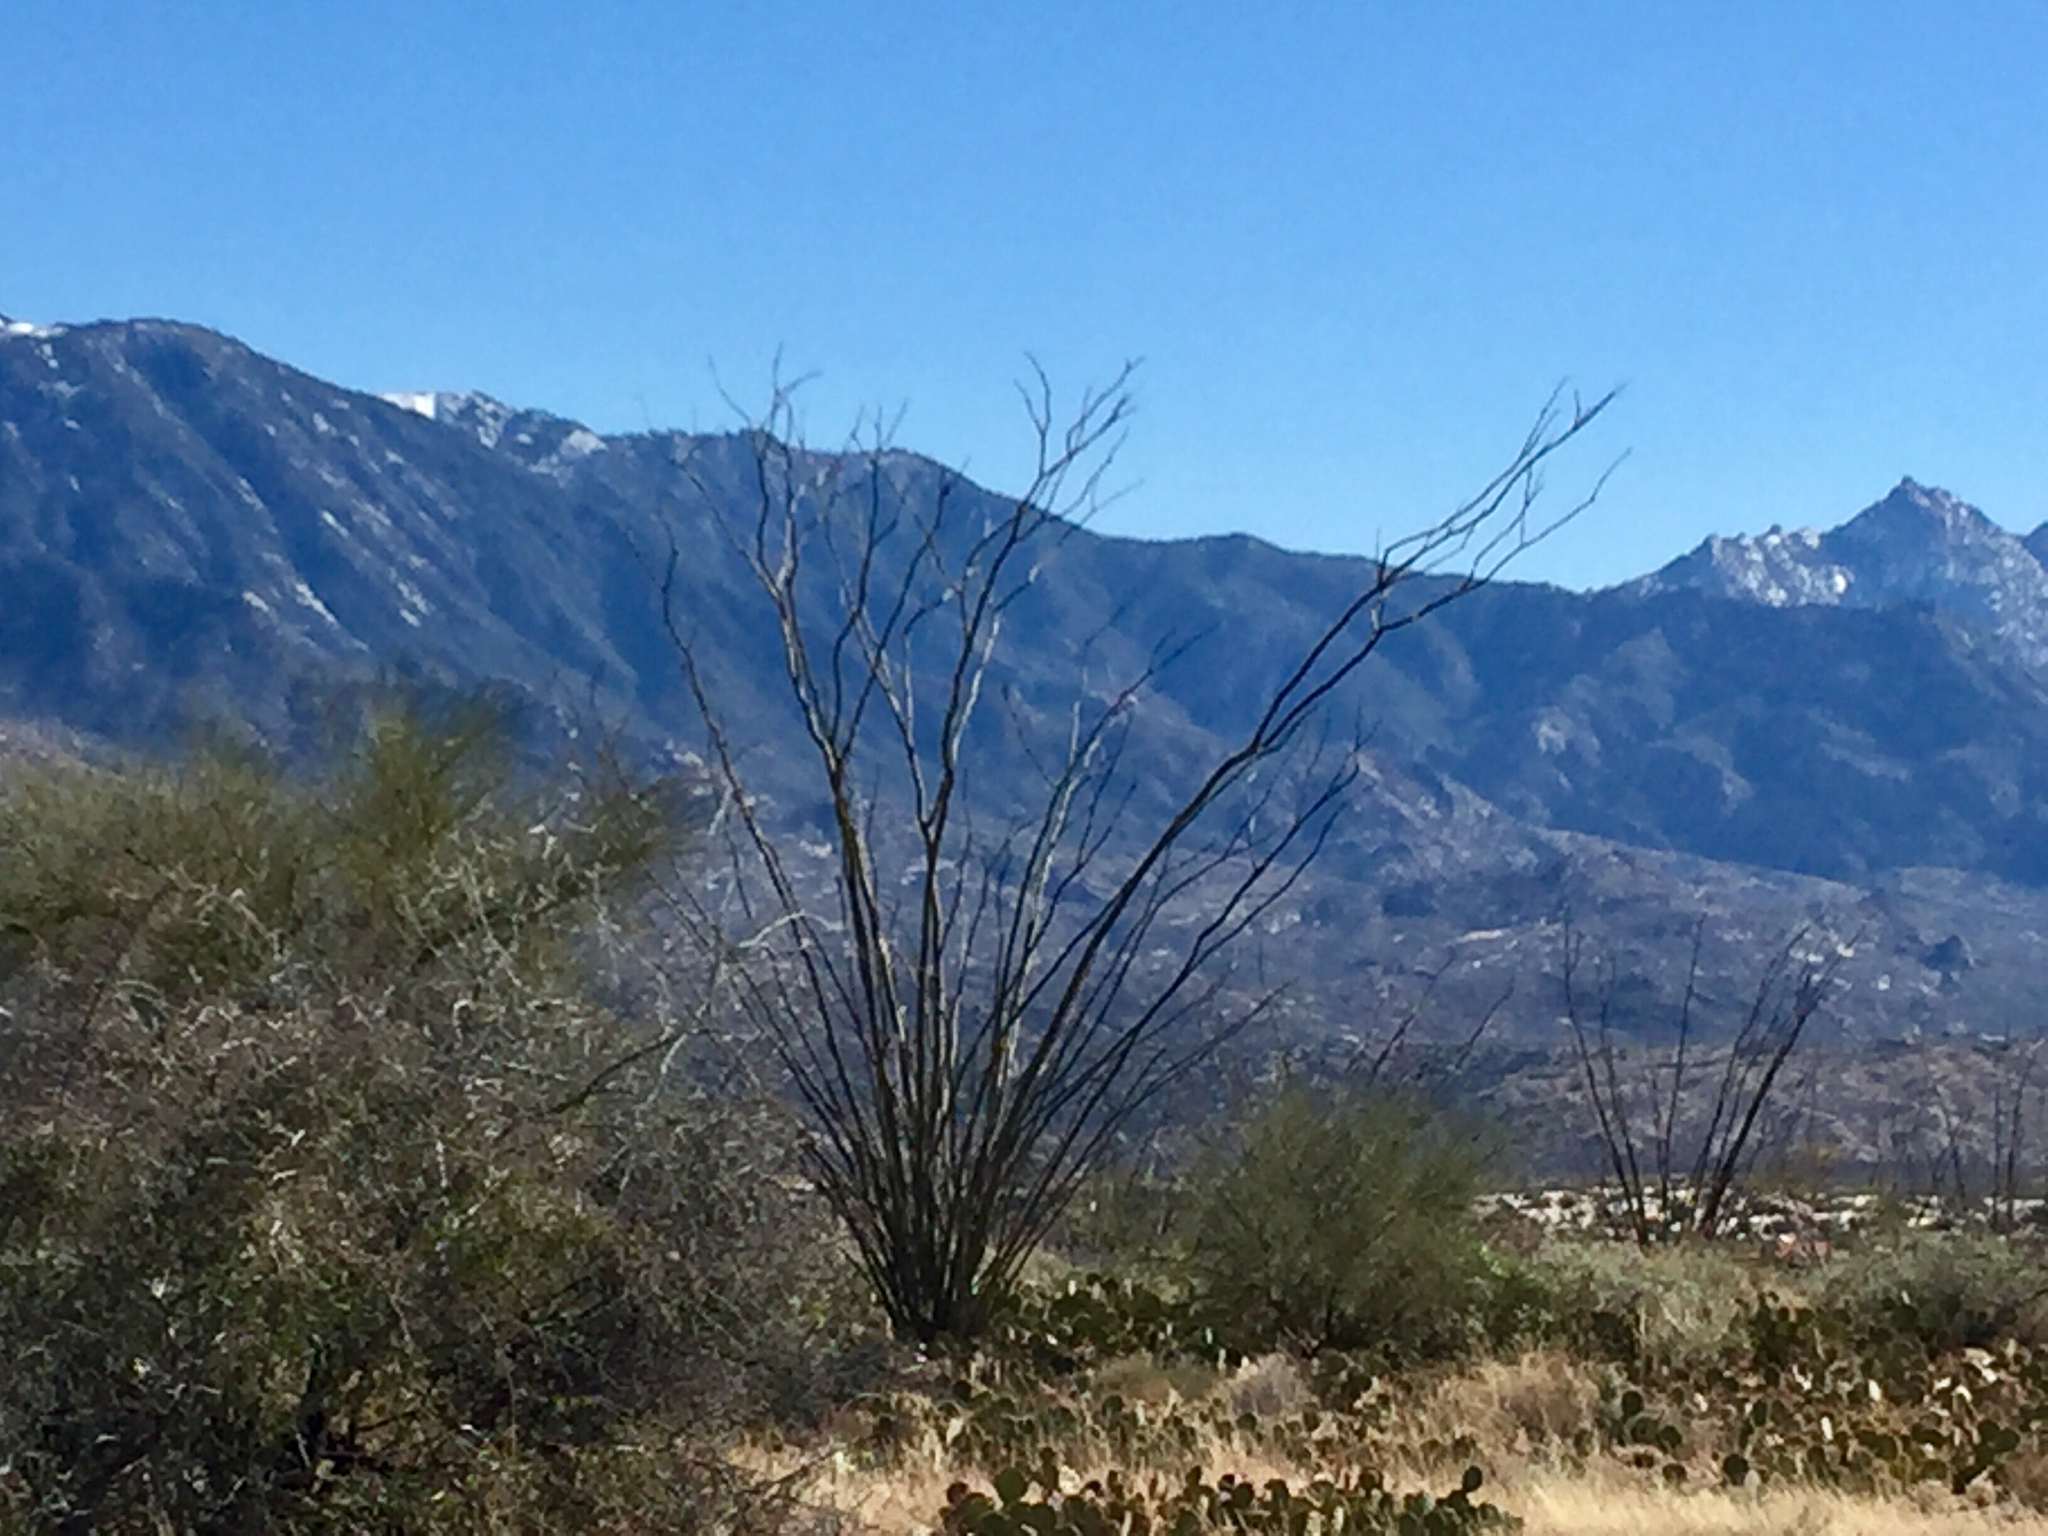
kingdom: Plantae
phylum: Tracheophyta
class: Magnoliopsida
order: Ericales
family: Fouquieriaceae
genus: Fouquieria
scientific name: Fouquieria splendens
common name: Vine-cactus
